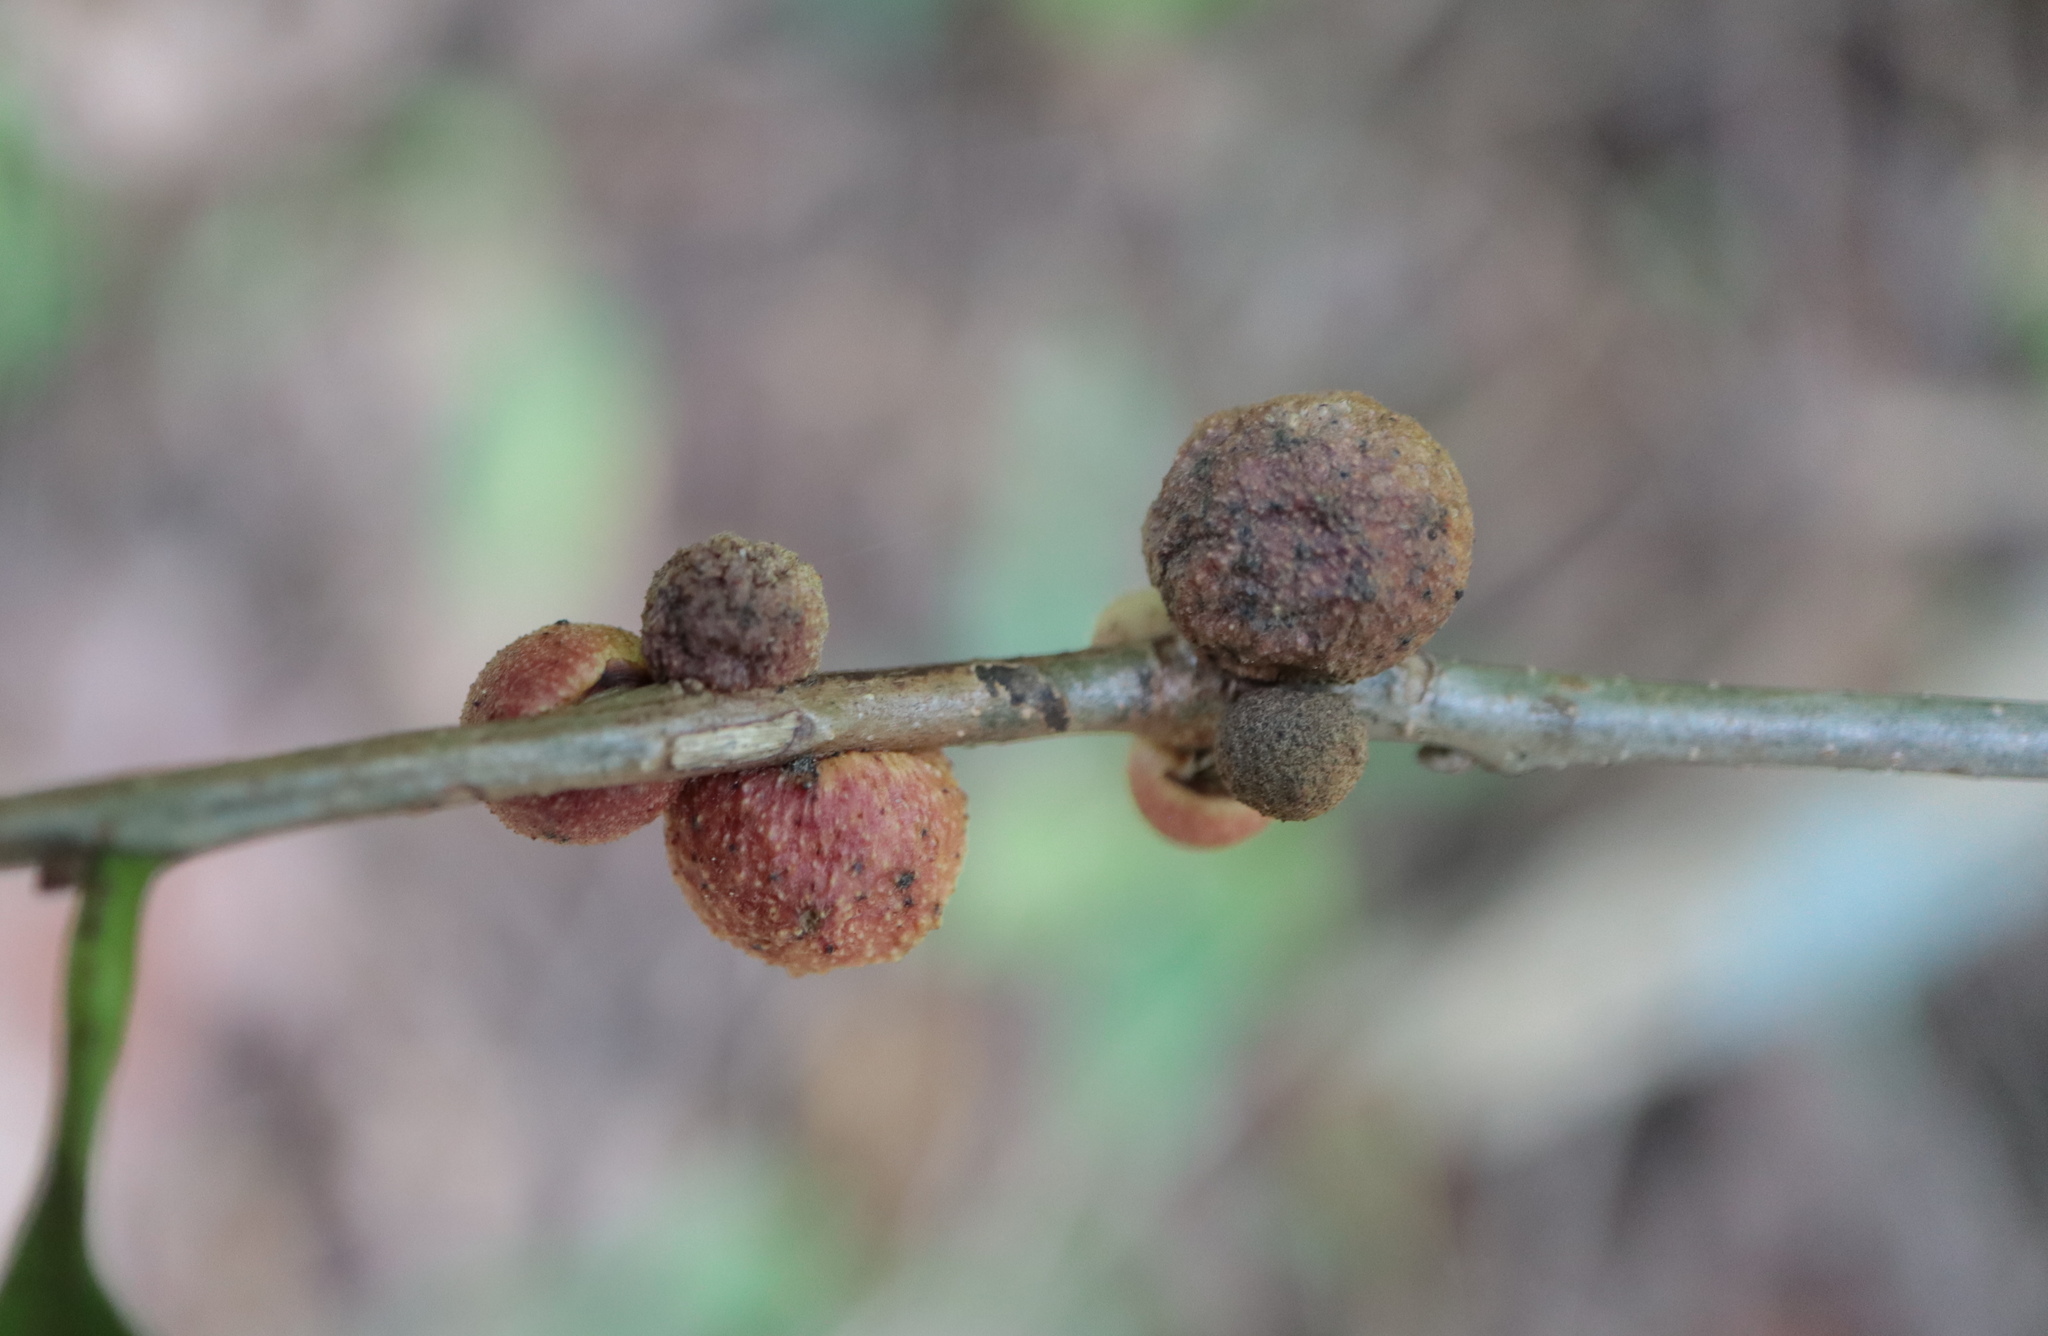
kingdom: Animalia
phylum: Arthropoda
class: Insecta
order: Hymenoptera
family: Cynipidae
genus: Disholcaspis
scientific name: Disholcaspis
